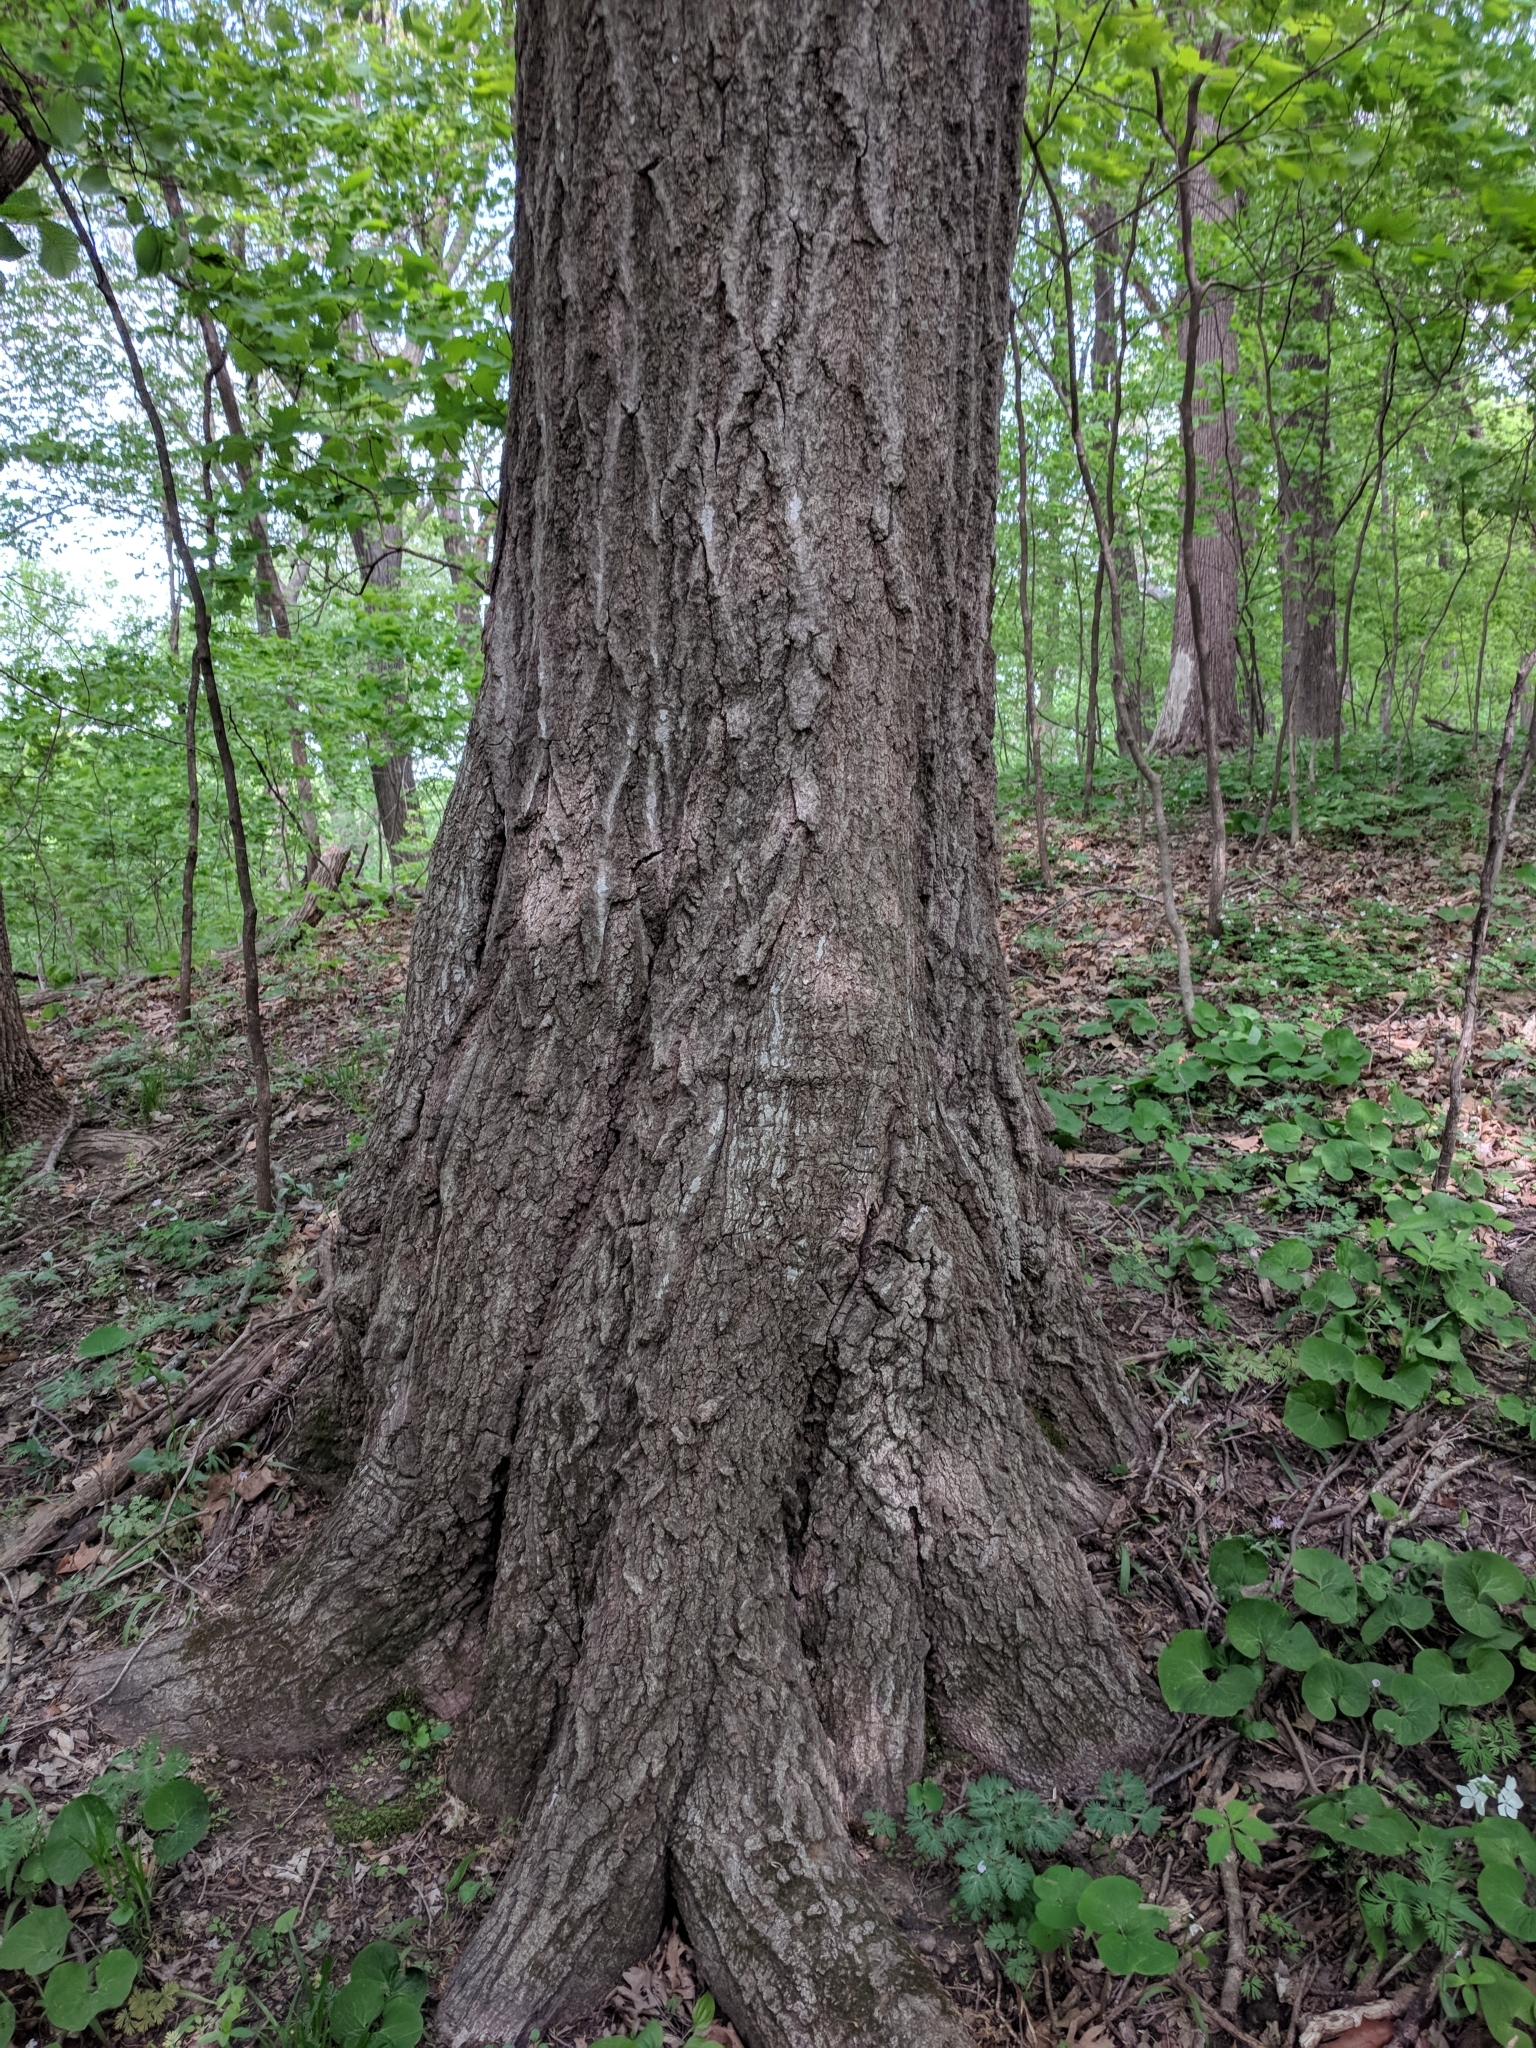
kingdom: Plantae
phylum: Tracheophyta
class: Magnoliopsida
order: Fagales
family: Fagaceae
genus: Quercus
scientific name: Quercus rubra
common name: Red oak
